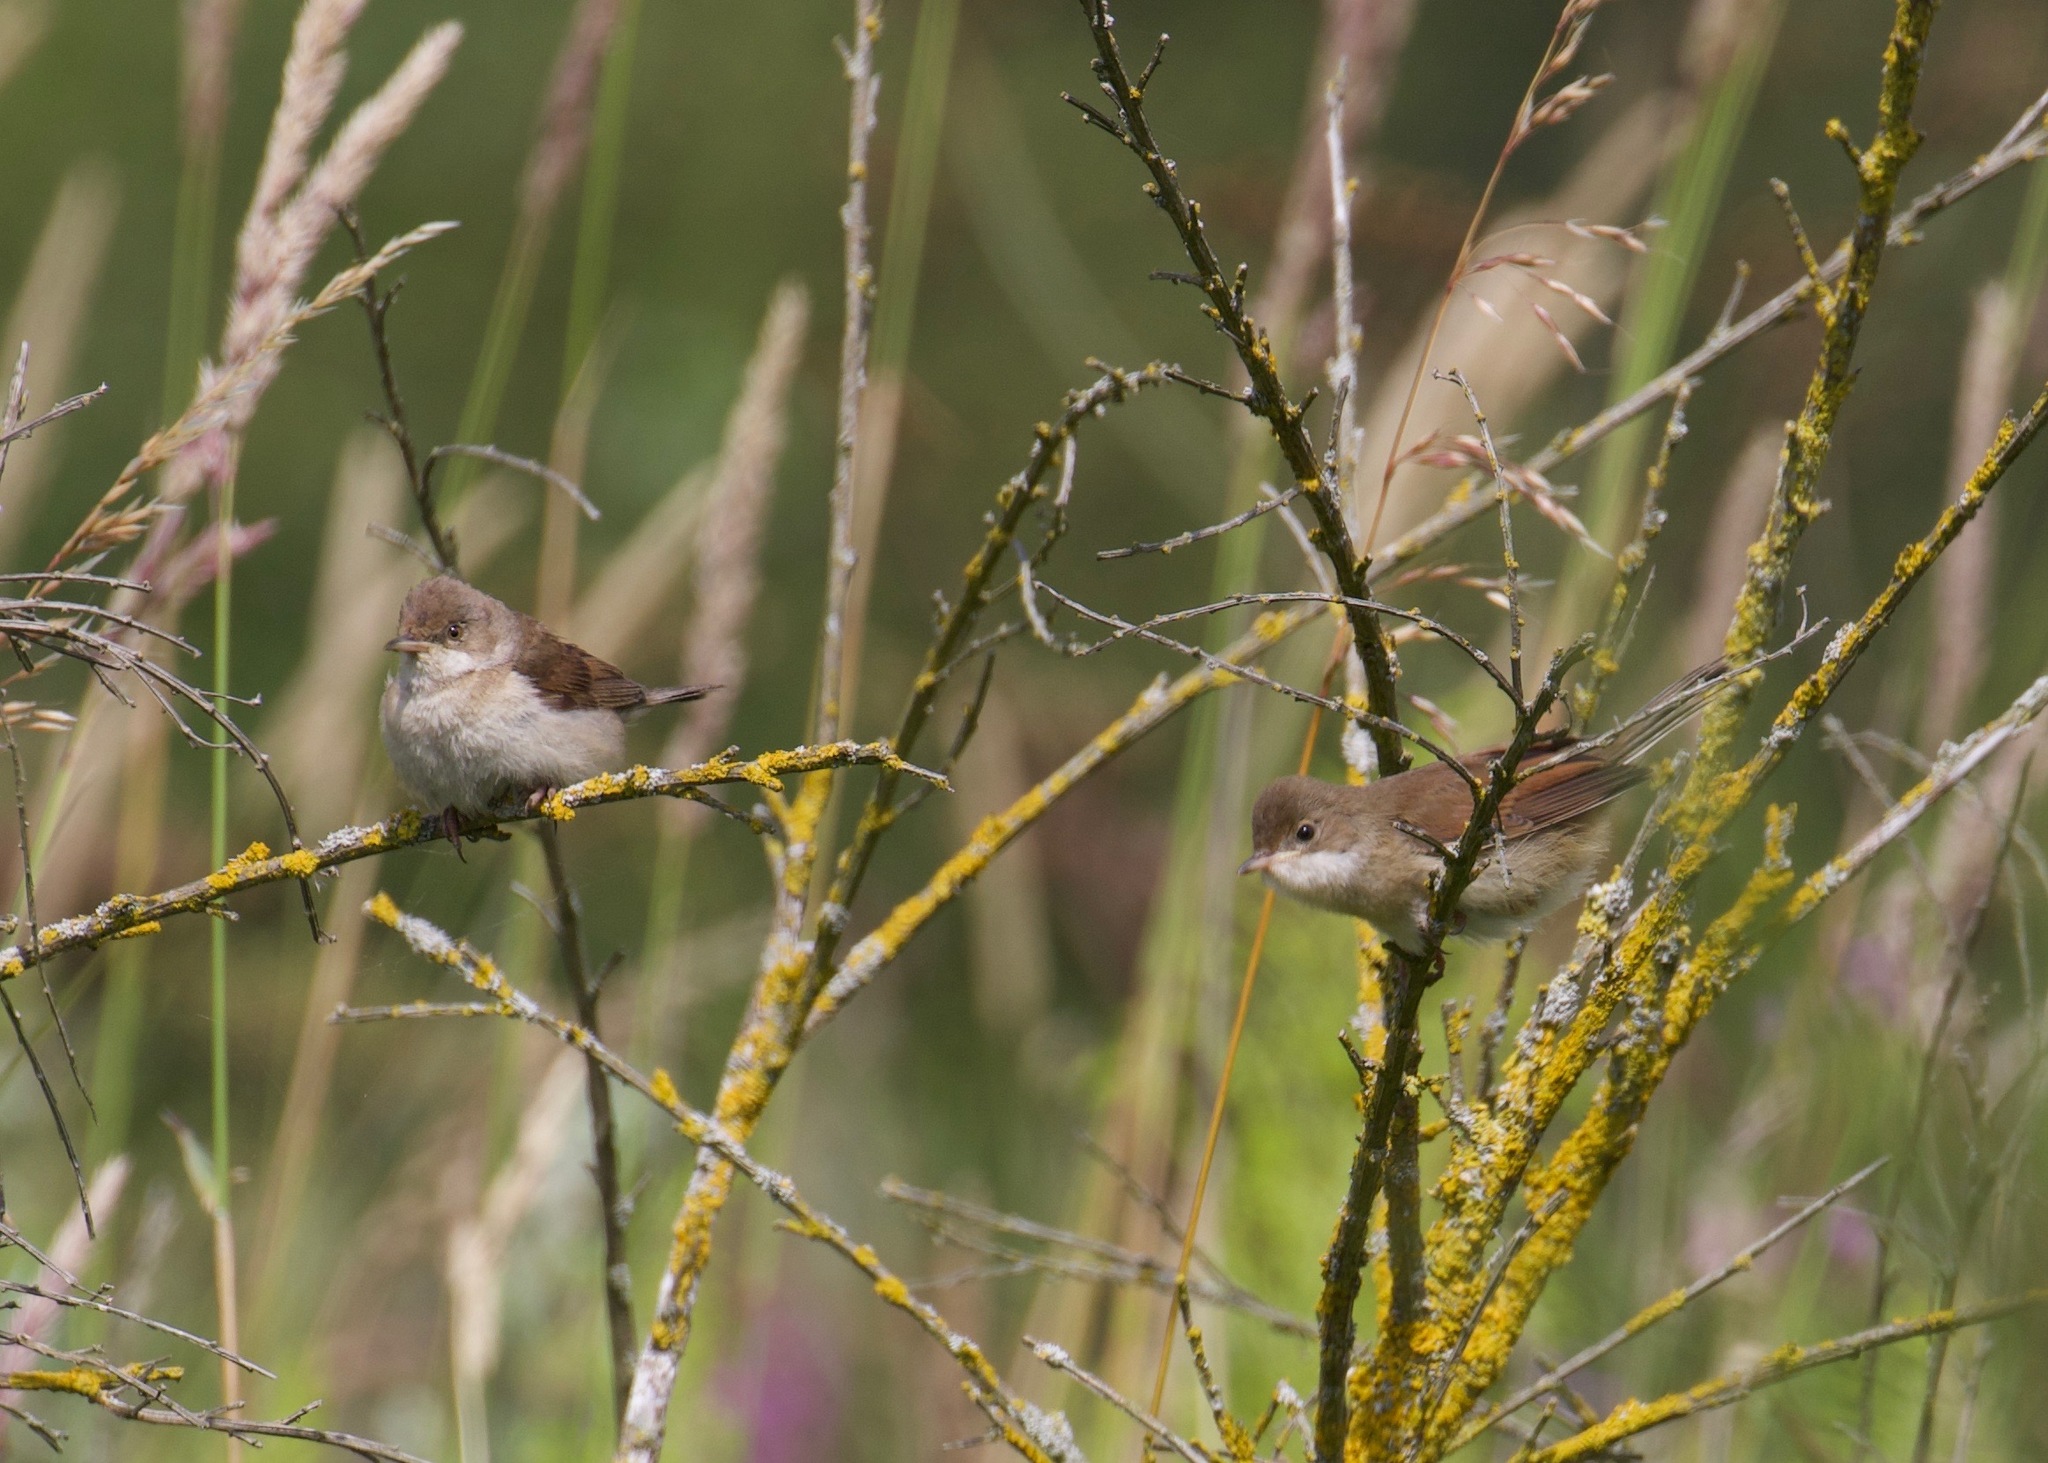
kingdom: Animalia
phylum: Chordata
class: Aves
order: Passeriformes
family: Sylviidae
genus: Sylvia
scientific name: Sylvia communis
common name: Common whitethroat
